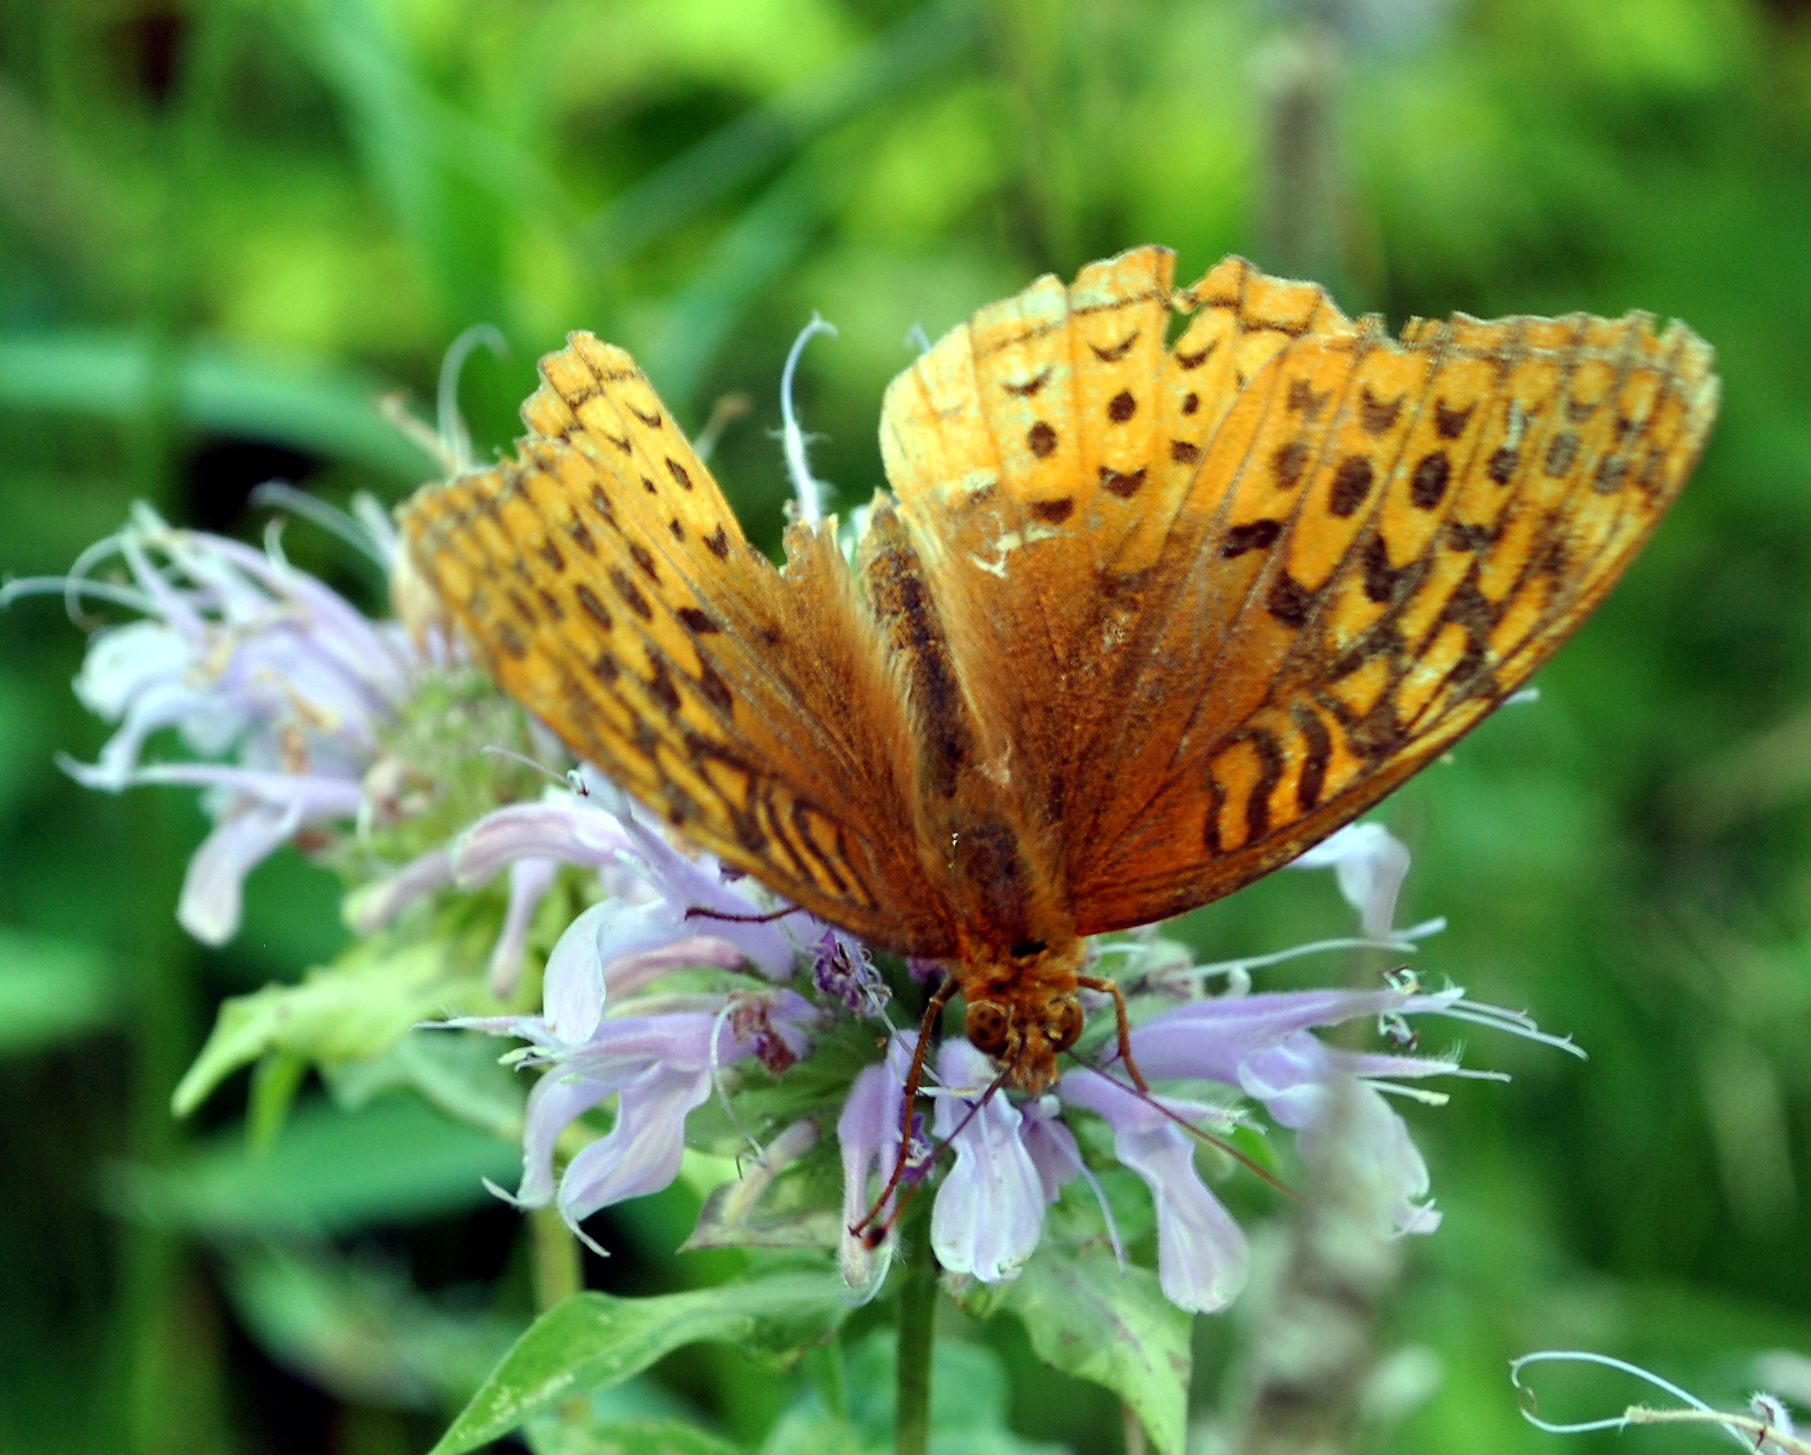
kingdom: Animalia
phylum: Arthropoda
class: Insecta
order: Lepidoptera
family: Nymphalidae
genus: Speyeria
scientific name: Speyeria cybele
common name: Great spangled fritillary
